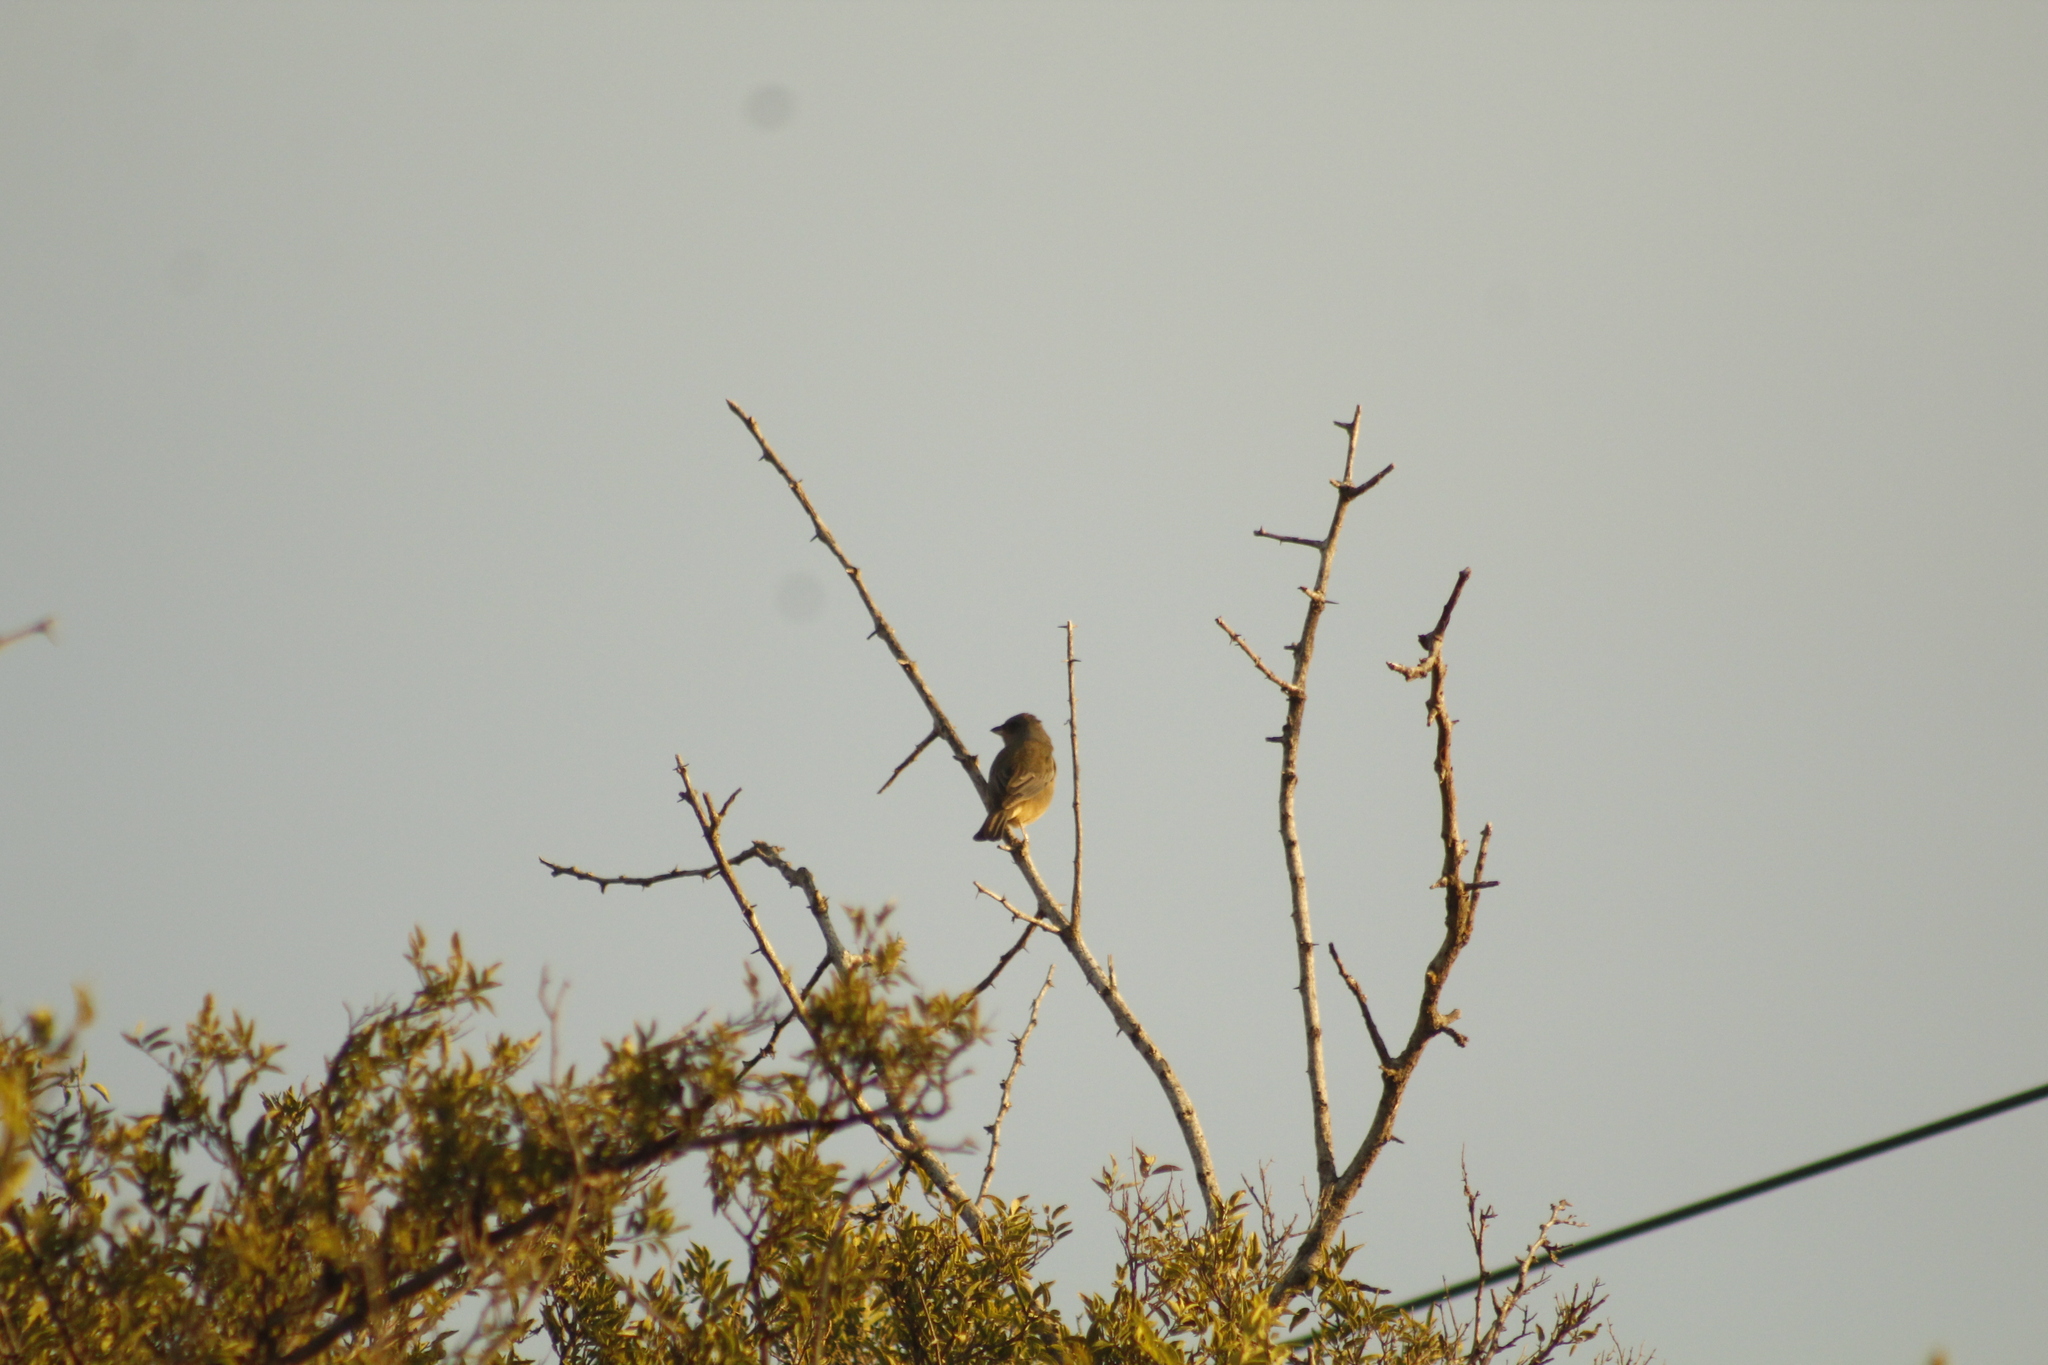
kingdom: Animalia
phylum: Chordata
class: Aves
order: Passeriformes
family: Thraupidae
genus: Rauenia
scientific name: Rauenia bonariensis
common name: Blue-and-yellow tanager
